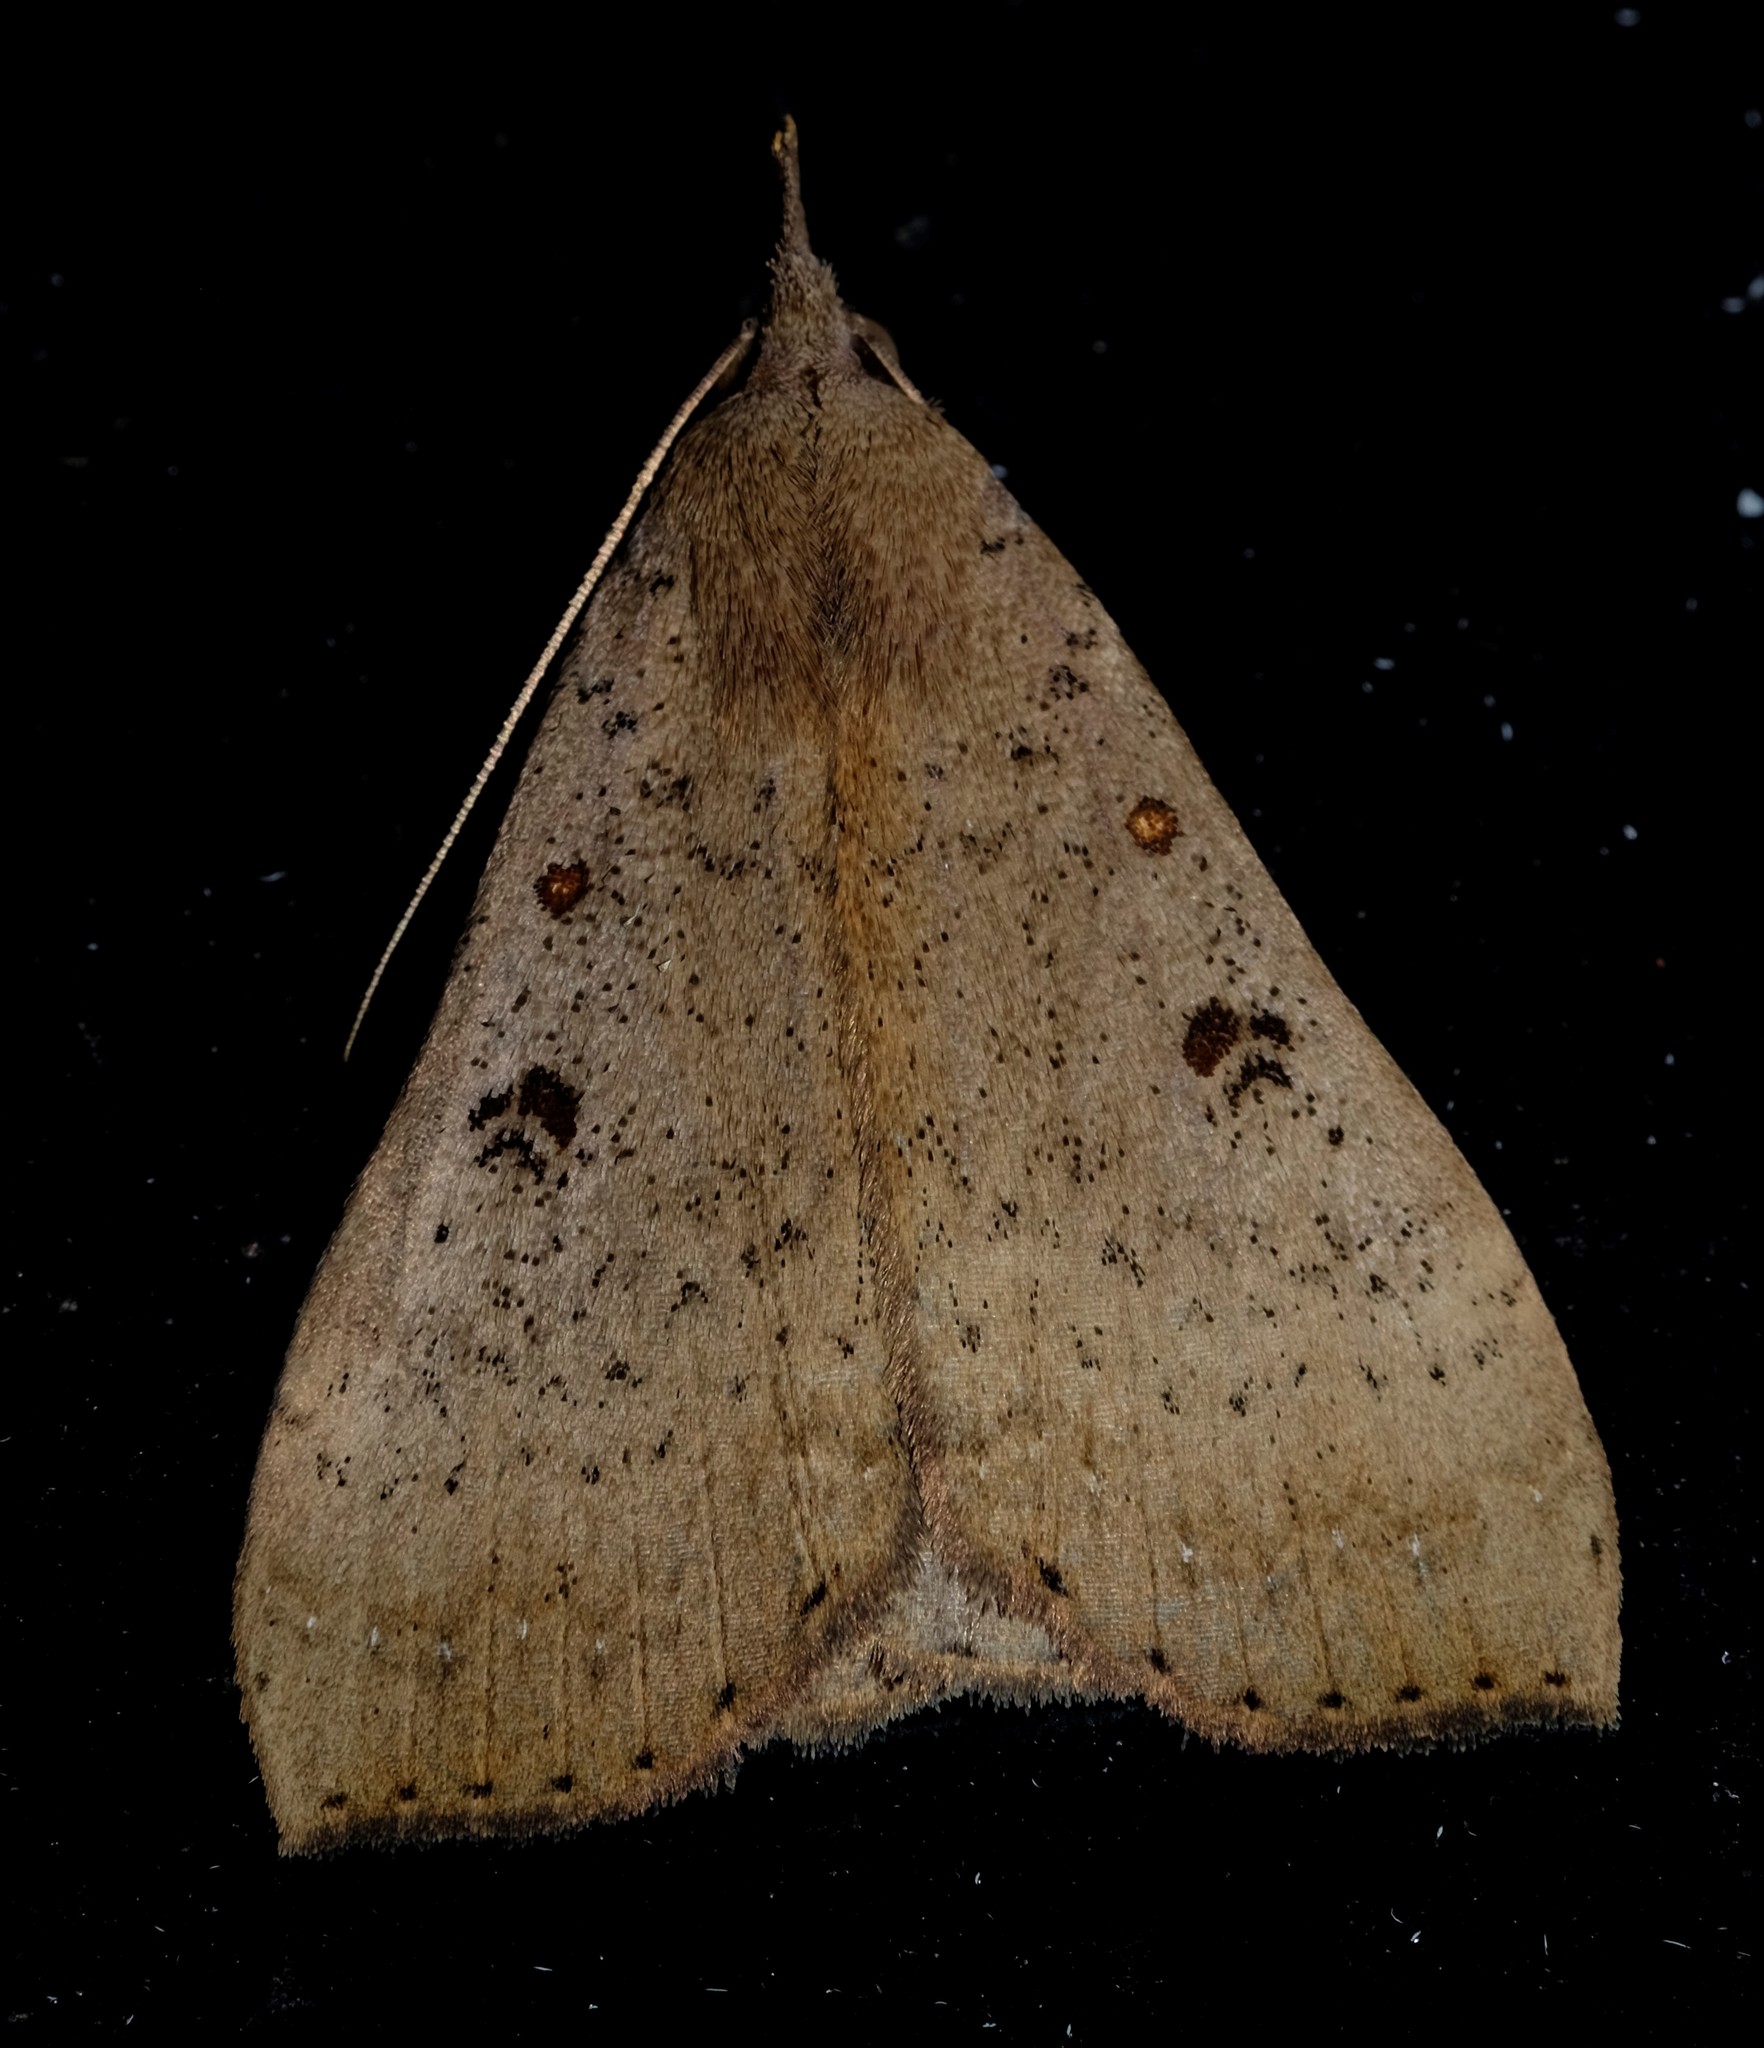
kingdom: Animalia
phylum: Arthropoda
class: Insecta
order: Lepidoptera
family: Erebidae
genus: Rhapsa
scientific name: Rhapsa suscitatalis
